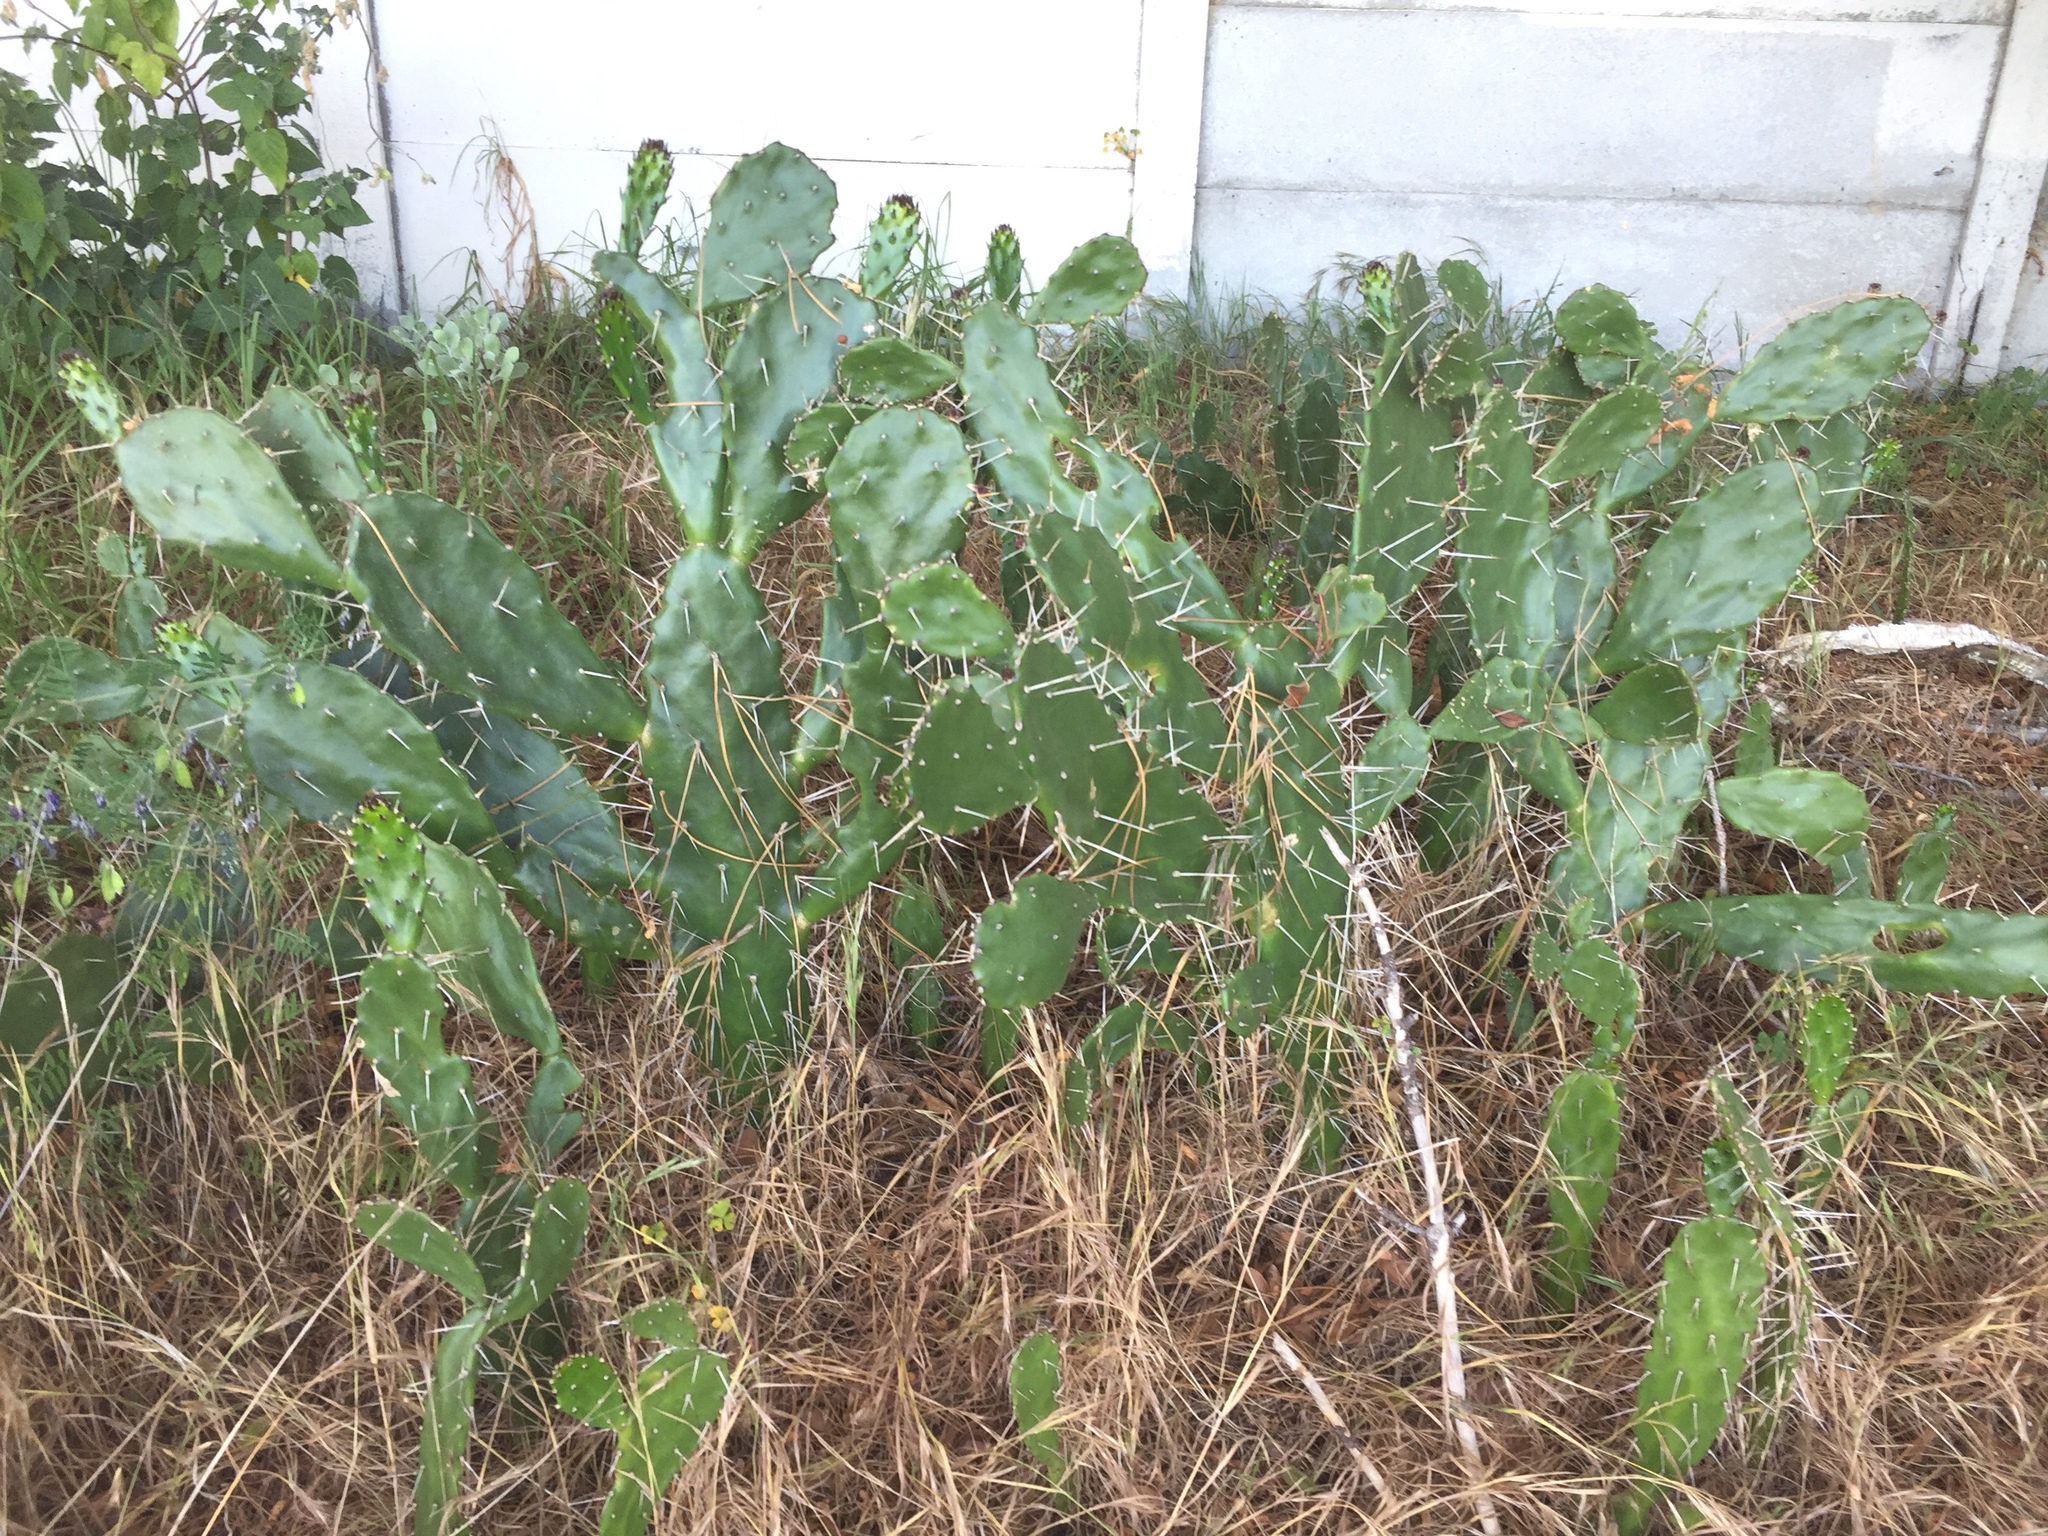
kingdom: Plantae
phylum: Tracheophyta
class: Magnoliopsida
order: Caryophyllales
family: Cactaceae
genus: Opuntia
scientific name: Opuntia monacantha
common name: Common pricklypear
